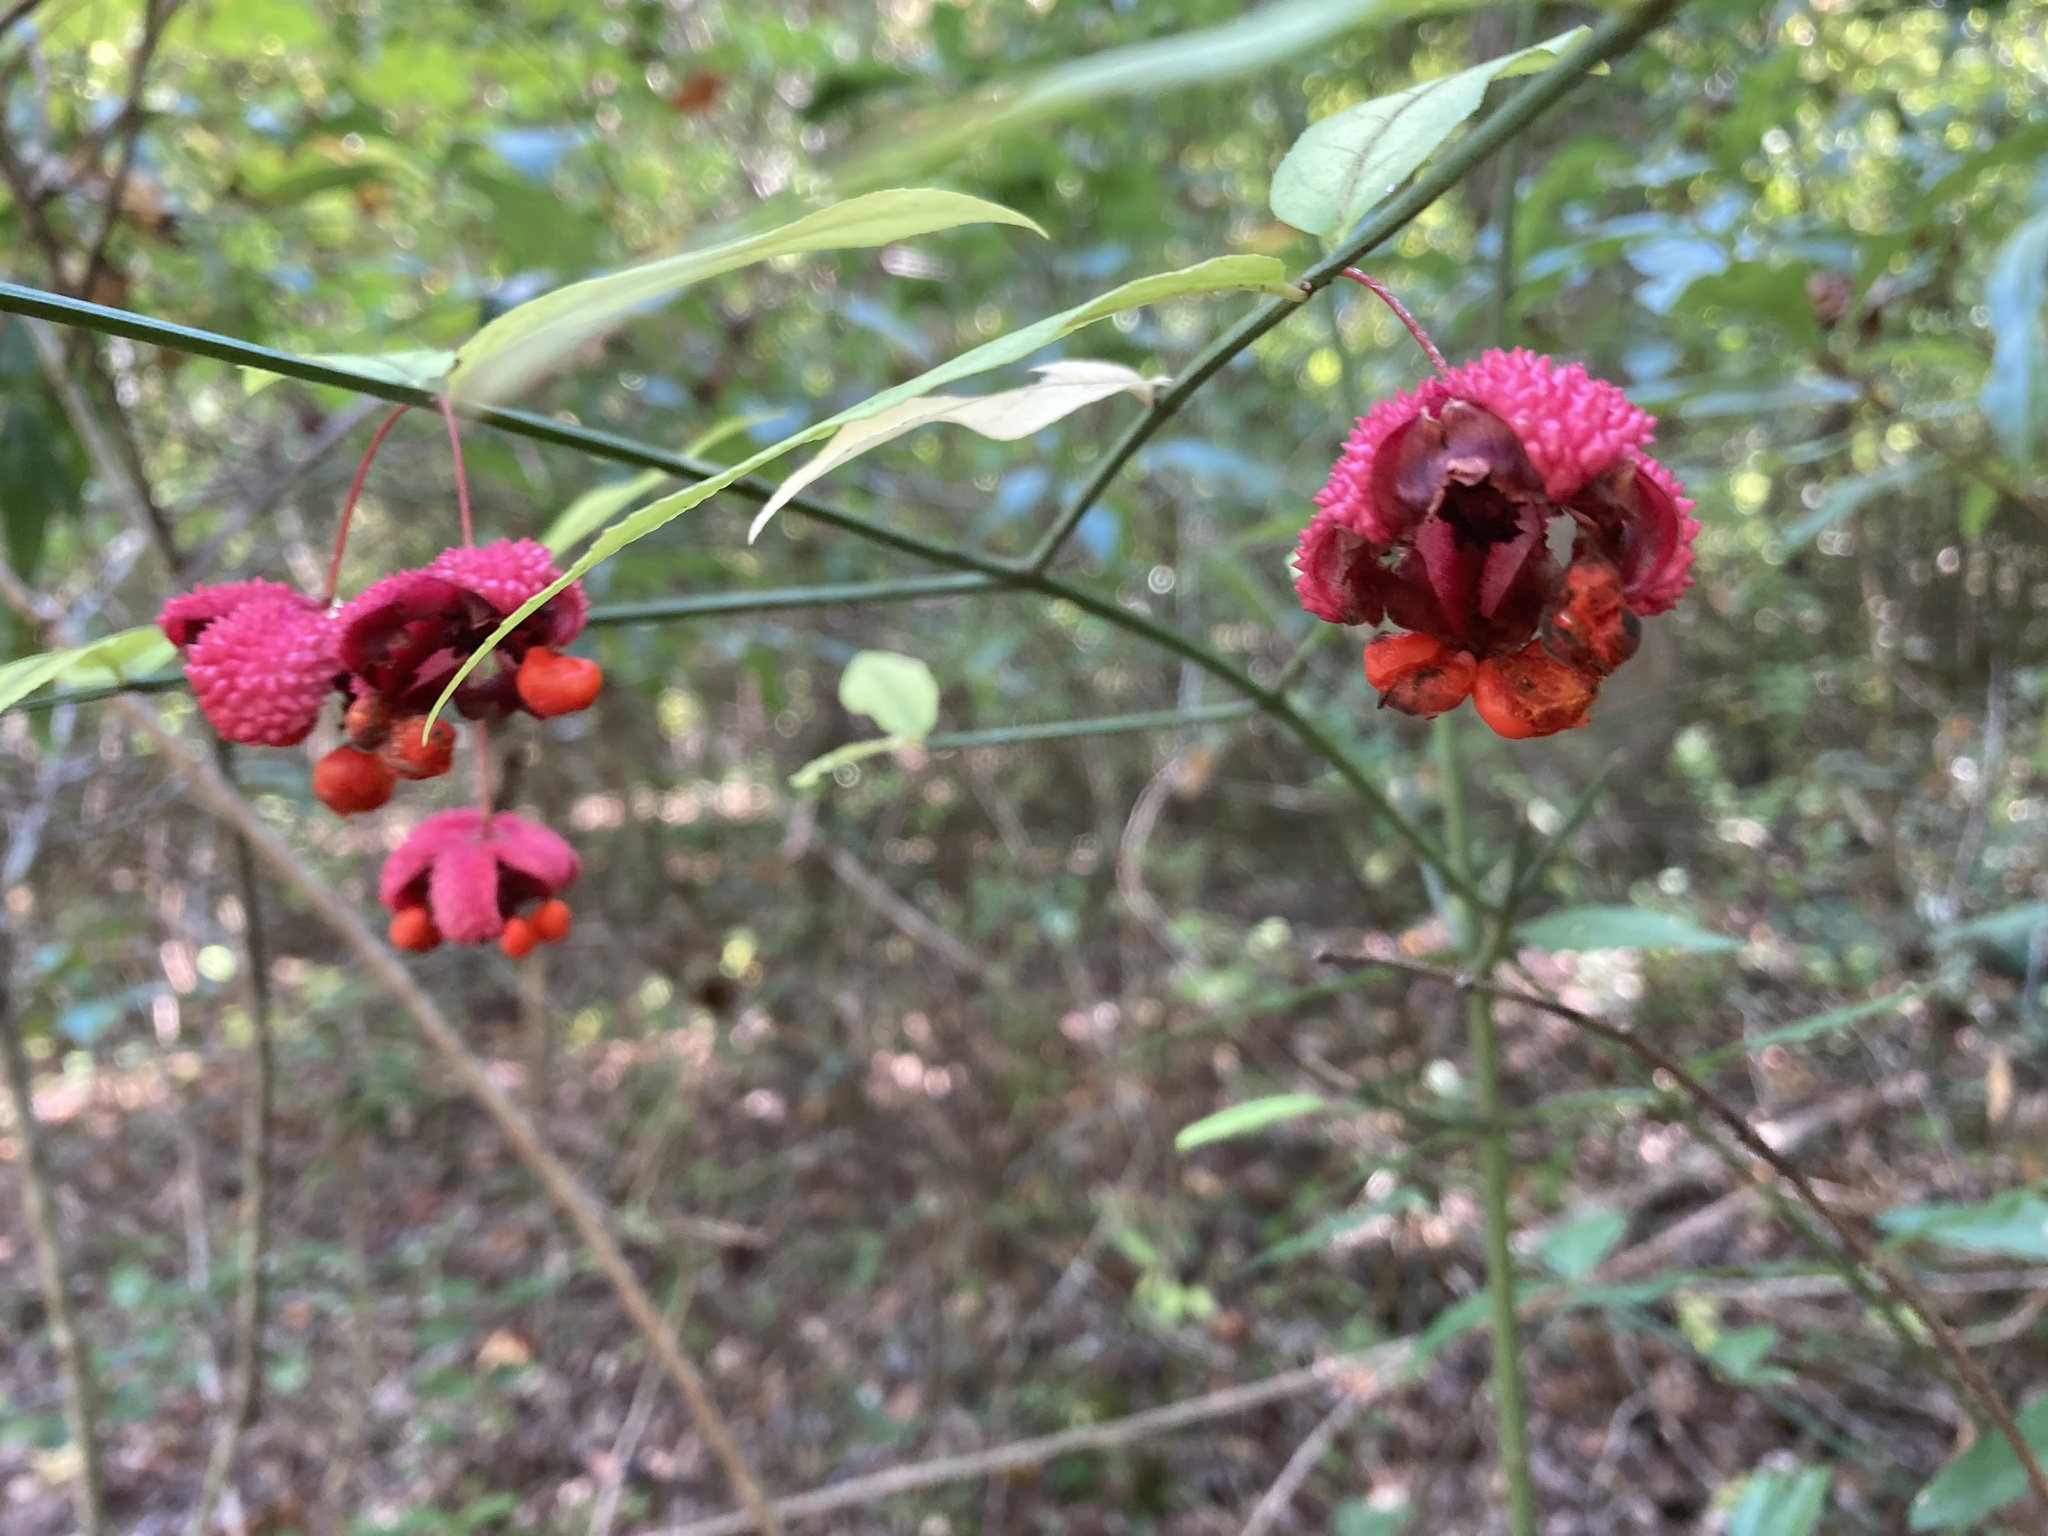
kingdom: Plantae
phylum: Tracheophyta
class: Magnoliopsida
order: Celastrales
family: Celastraceae
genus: Euonymus
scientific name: Euonymus americanus
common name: Bursting-heart
